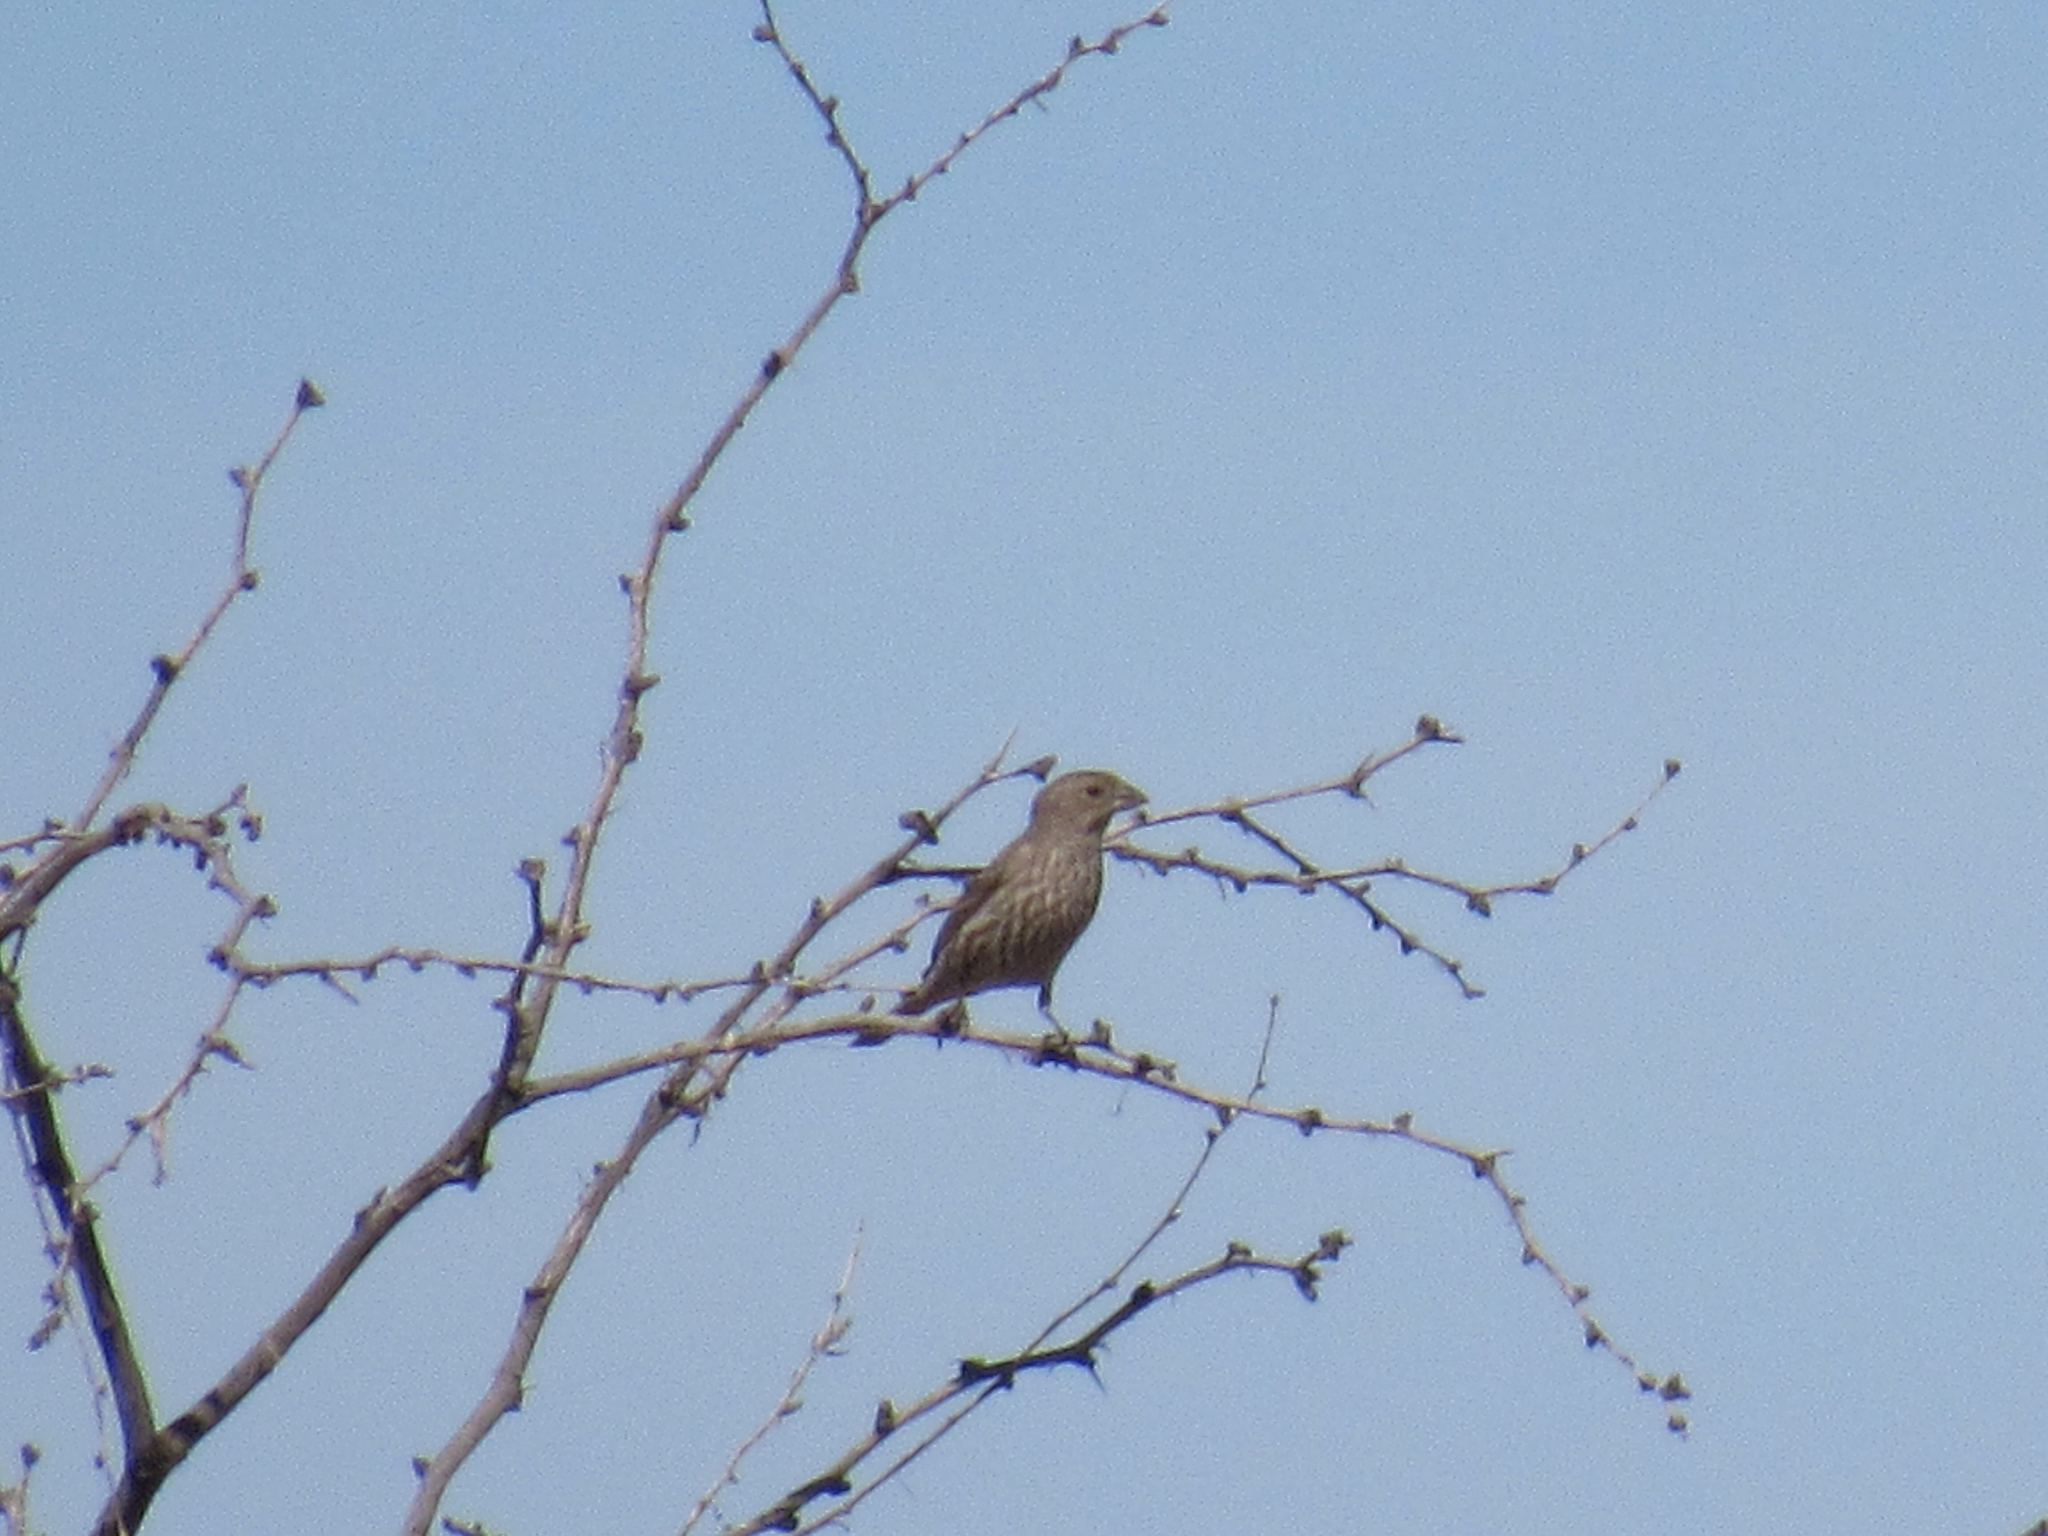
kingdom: Animalia
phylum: Chordata
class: Aves
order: Passeriformes
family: Fringillidae
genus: Haemorhous
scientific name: Haemorhous mexicanus
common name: House finch
